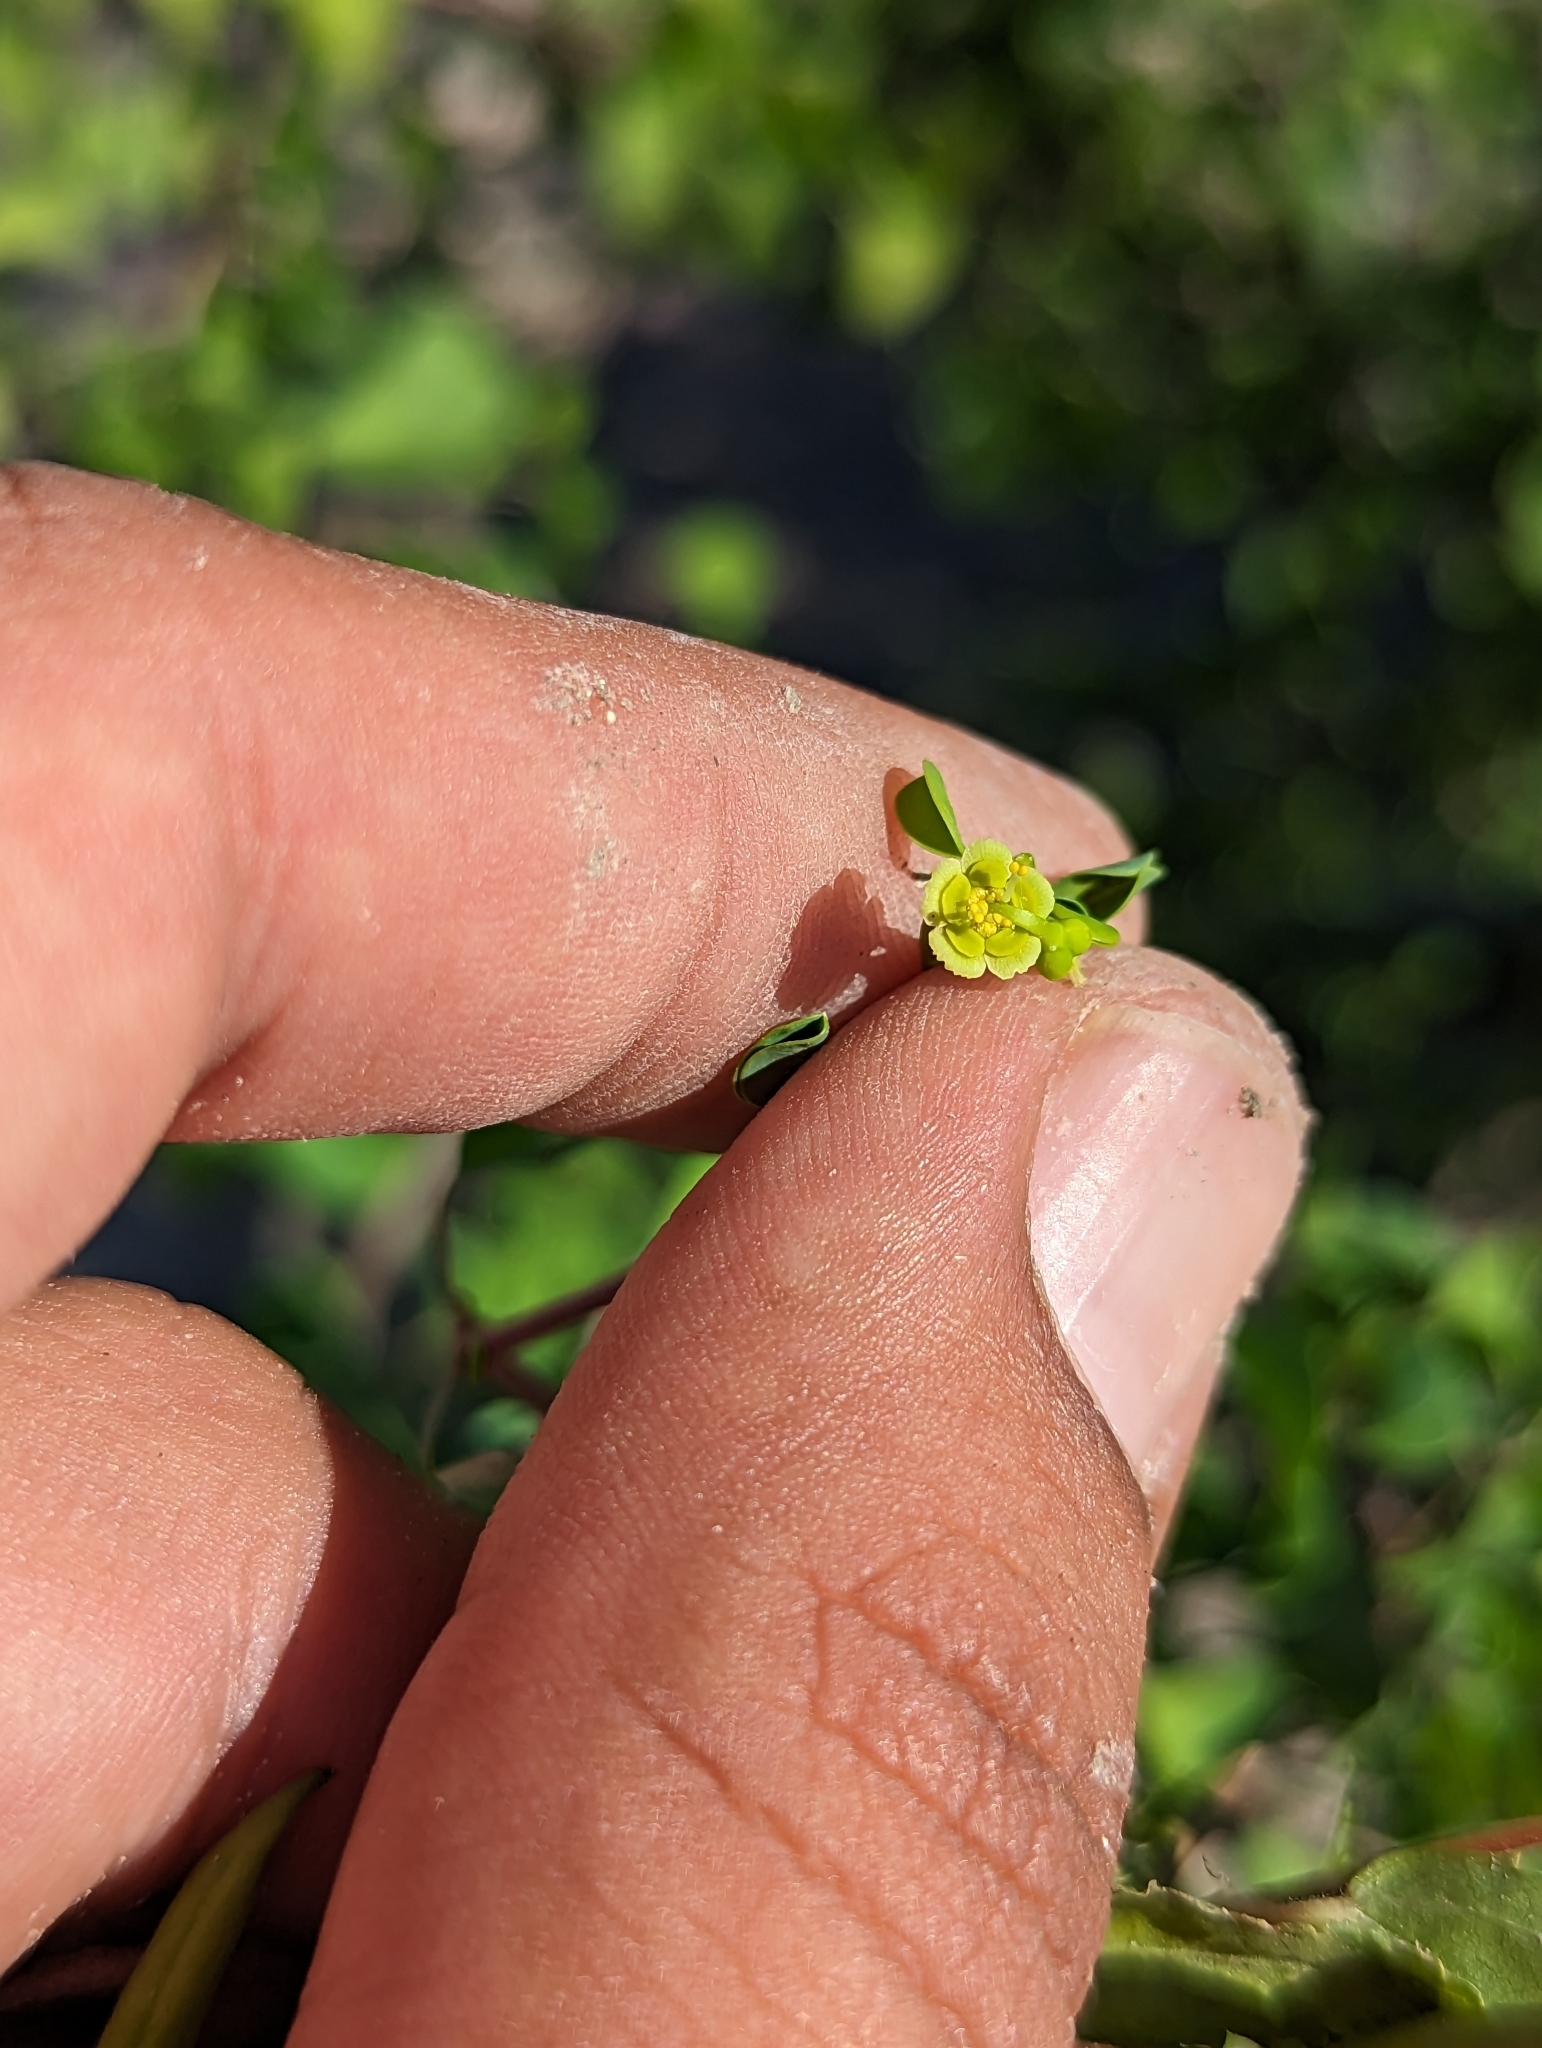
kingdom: Plantae
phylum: Tracheophyta
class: Magnoliopsida
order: Malpighiales
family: Euphorbiaceae
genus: Euphorbia
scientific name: Euphorbia californica
